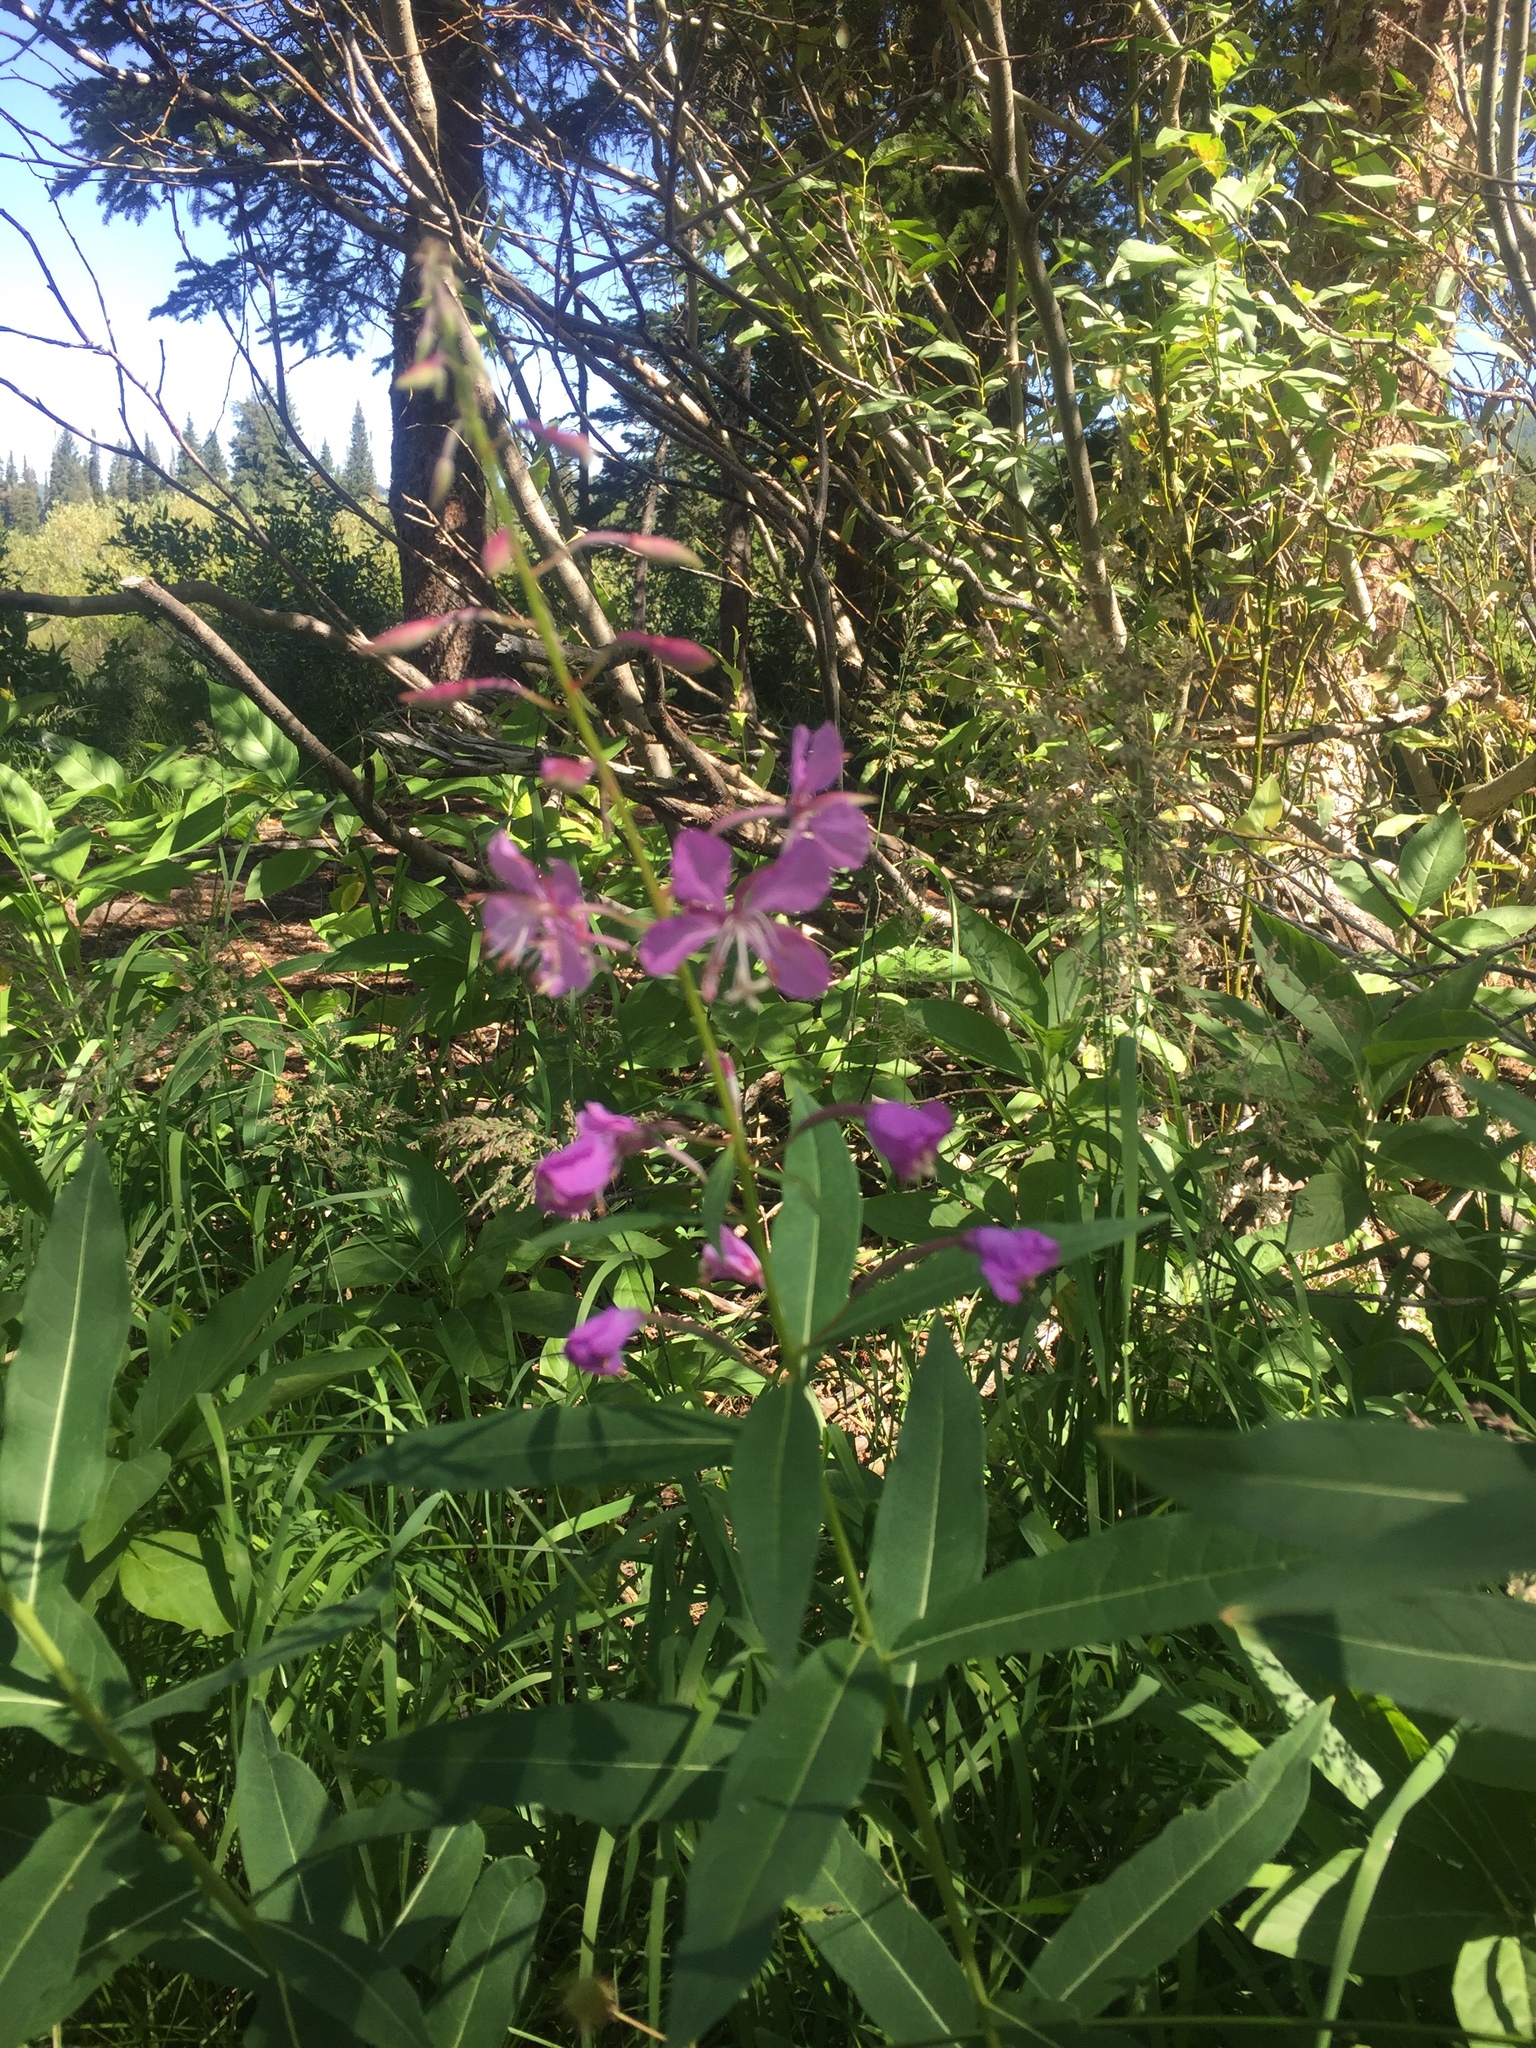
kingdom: Plantae
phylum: Tracheophyta
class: Magnoliopsida
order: Myrtales
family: Onagraceae
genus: Chamaenerion
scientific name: Chamaenerion angustifolium
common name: Fireweed
